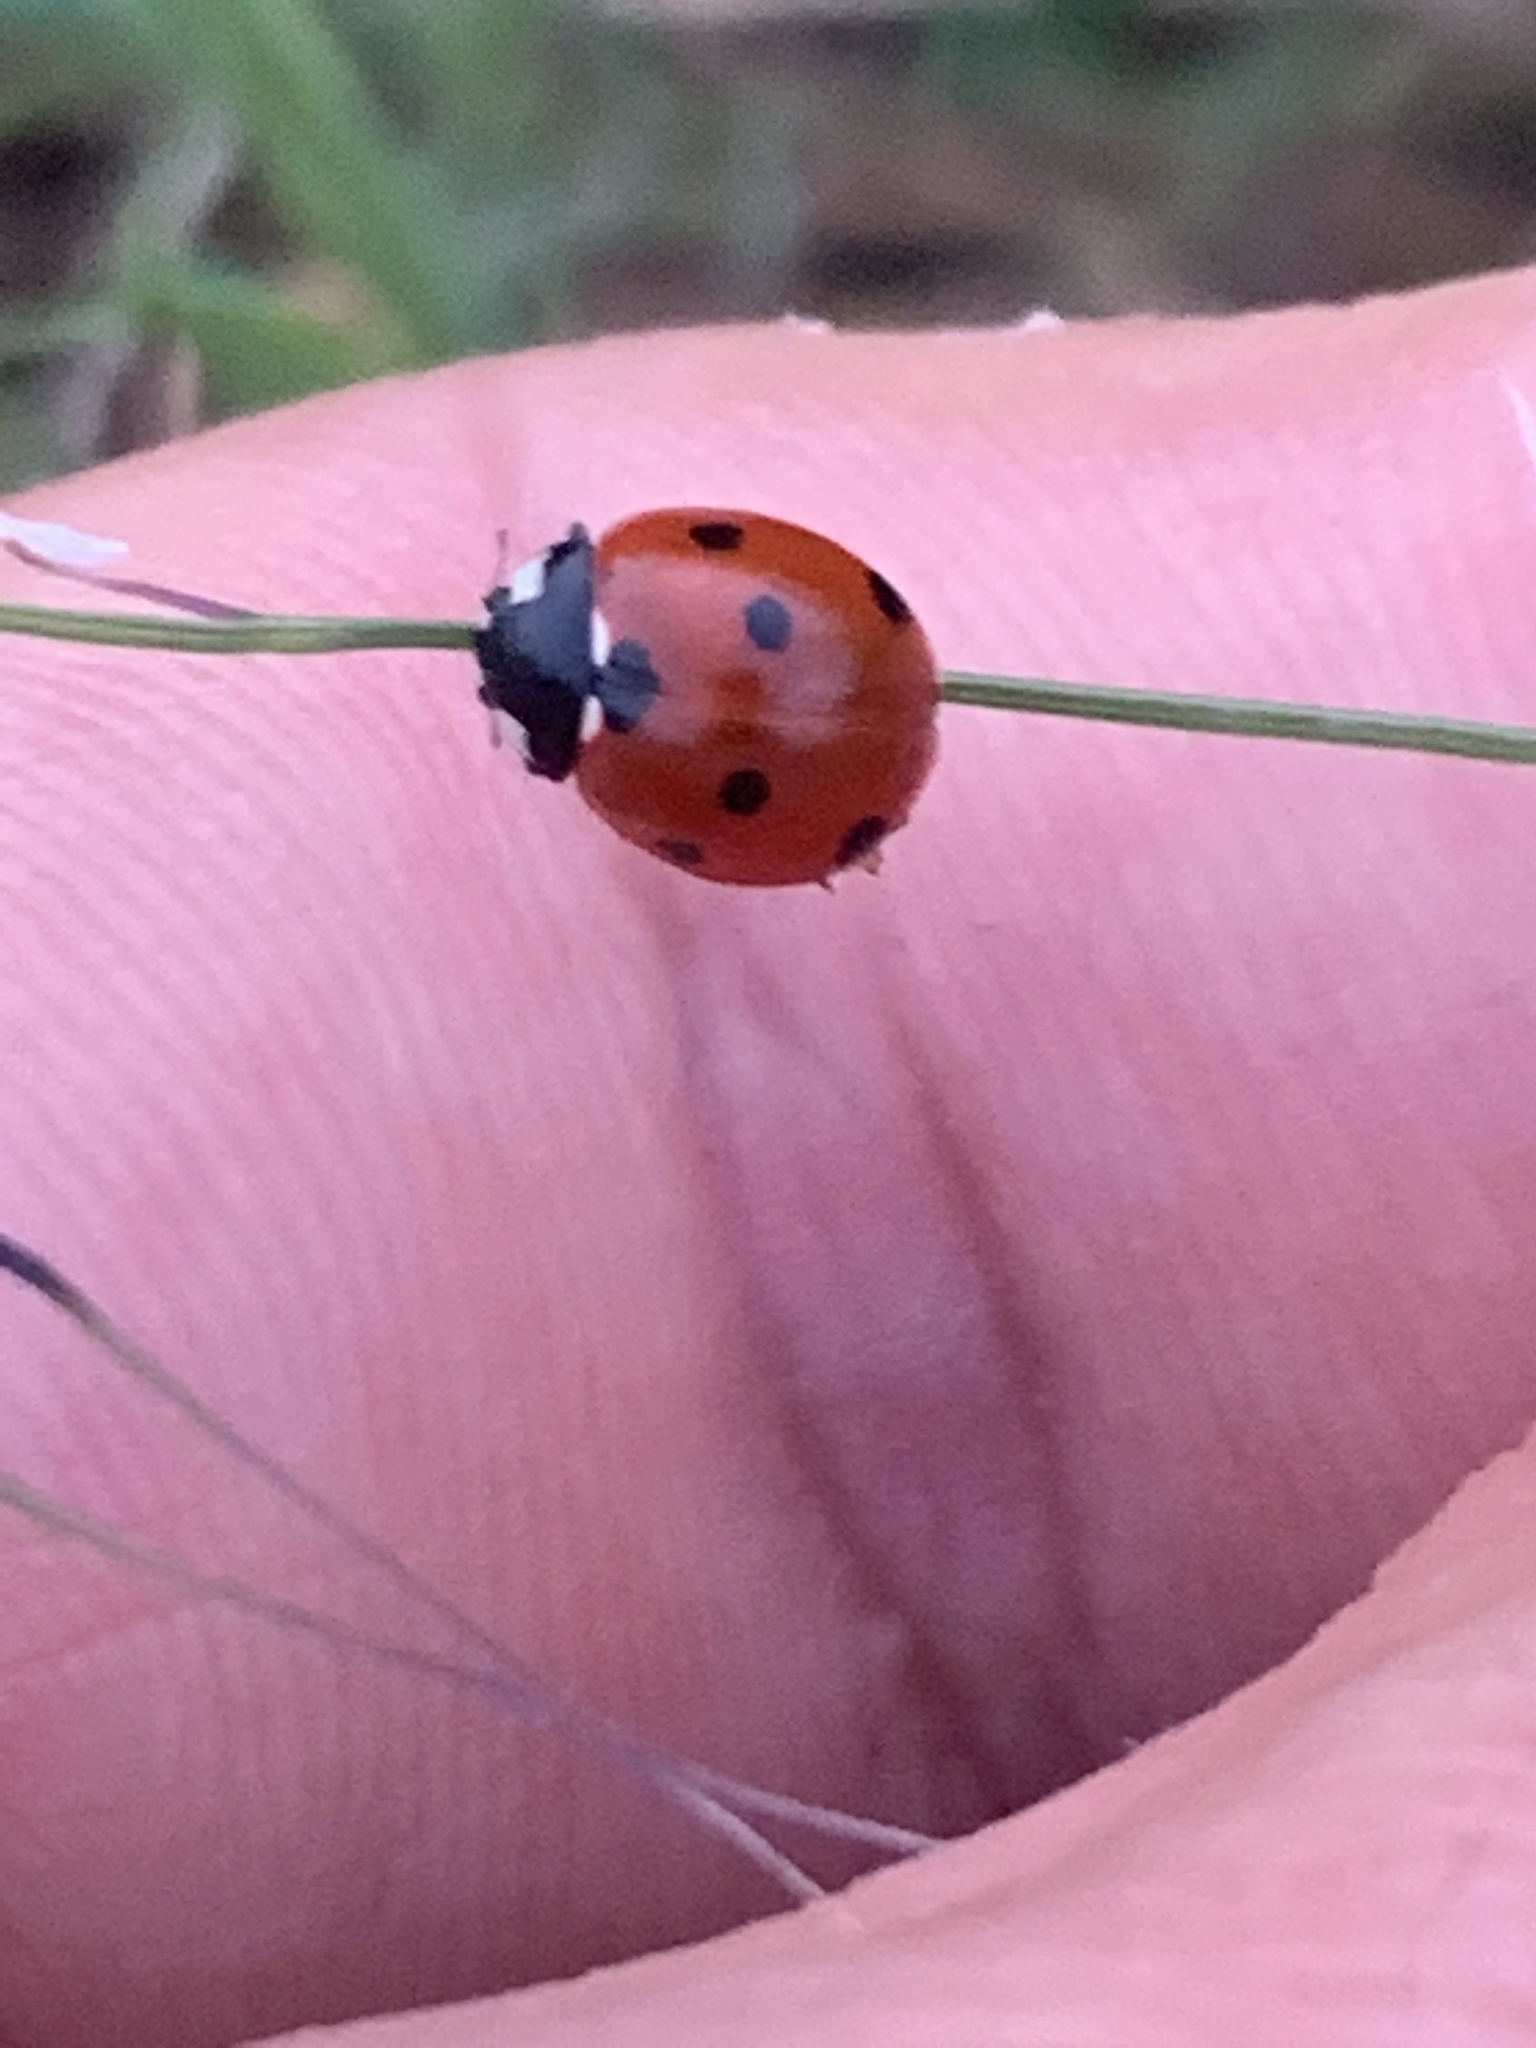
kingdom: Animalia
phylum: Arthropoda
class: Insecta
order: Coleoptera
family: Coccinellidae
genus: Coccinella
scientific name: Coccinella septempunctata
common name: Sevenspotted lady beetle
